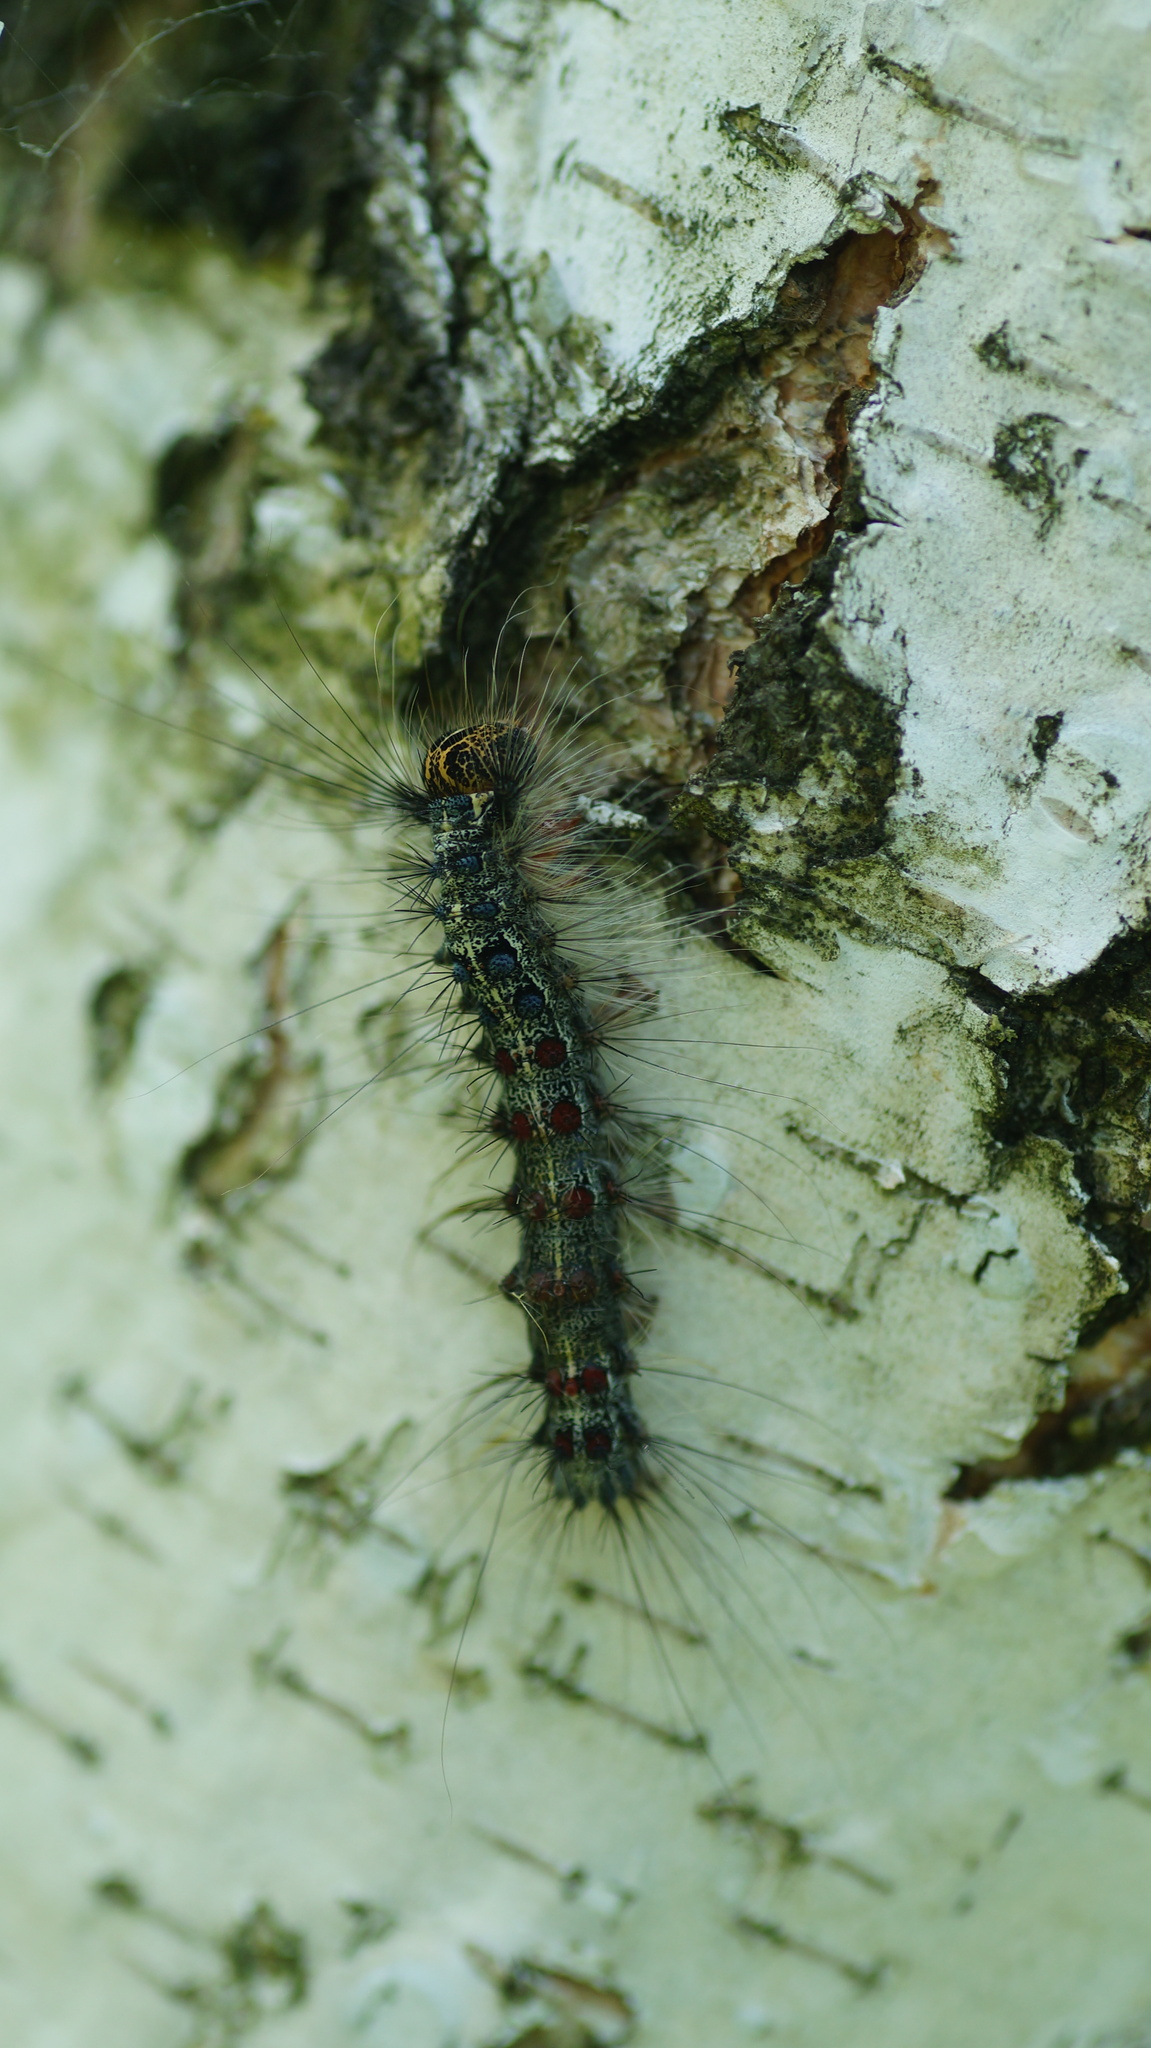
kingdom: Animalia
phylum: Arthropoda
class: Insecta
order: Lepidoptera
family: Erebidae
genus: Lymantria
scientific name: Lymantria dispar
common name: Gypsy moth
